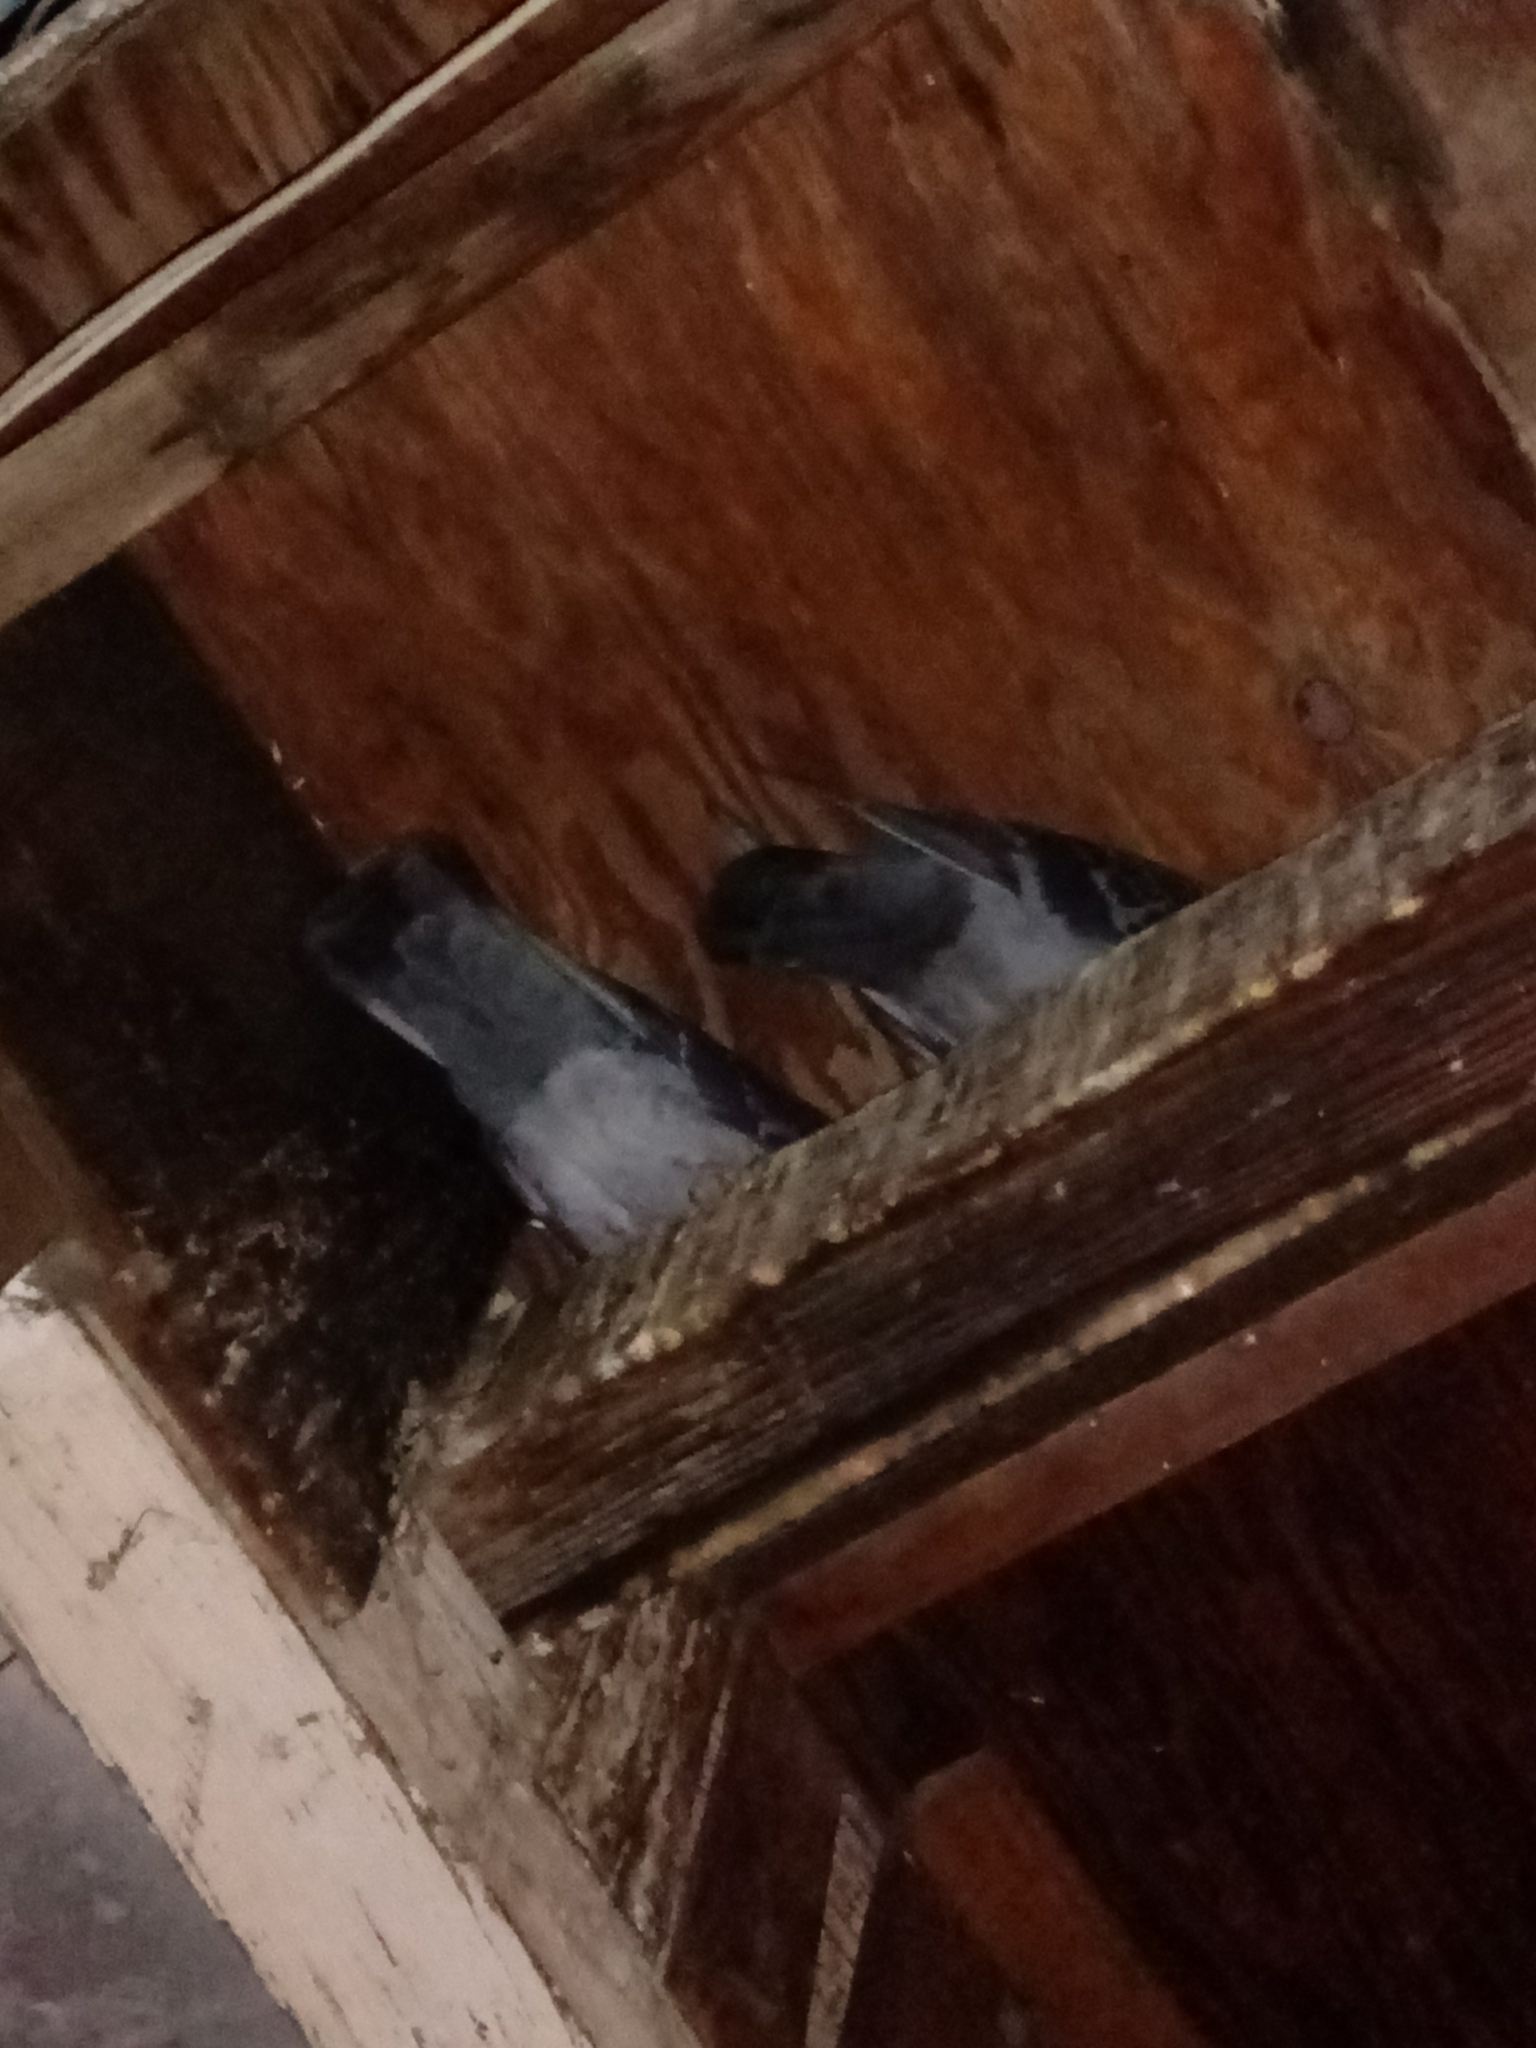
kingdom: Animalia
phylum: Chordata
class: Aves
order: Columbiformes
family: Columbidae
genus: Columba
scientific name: Columba livia
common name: Rock pigeon
